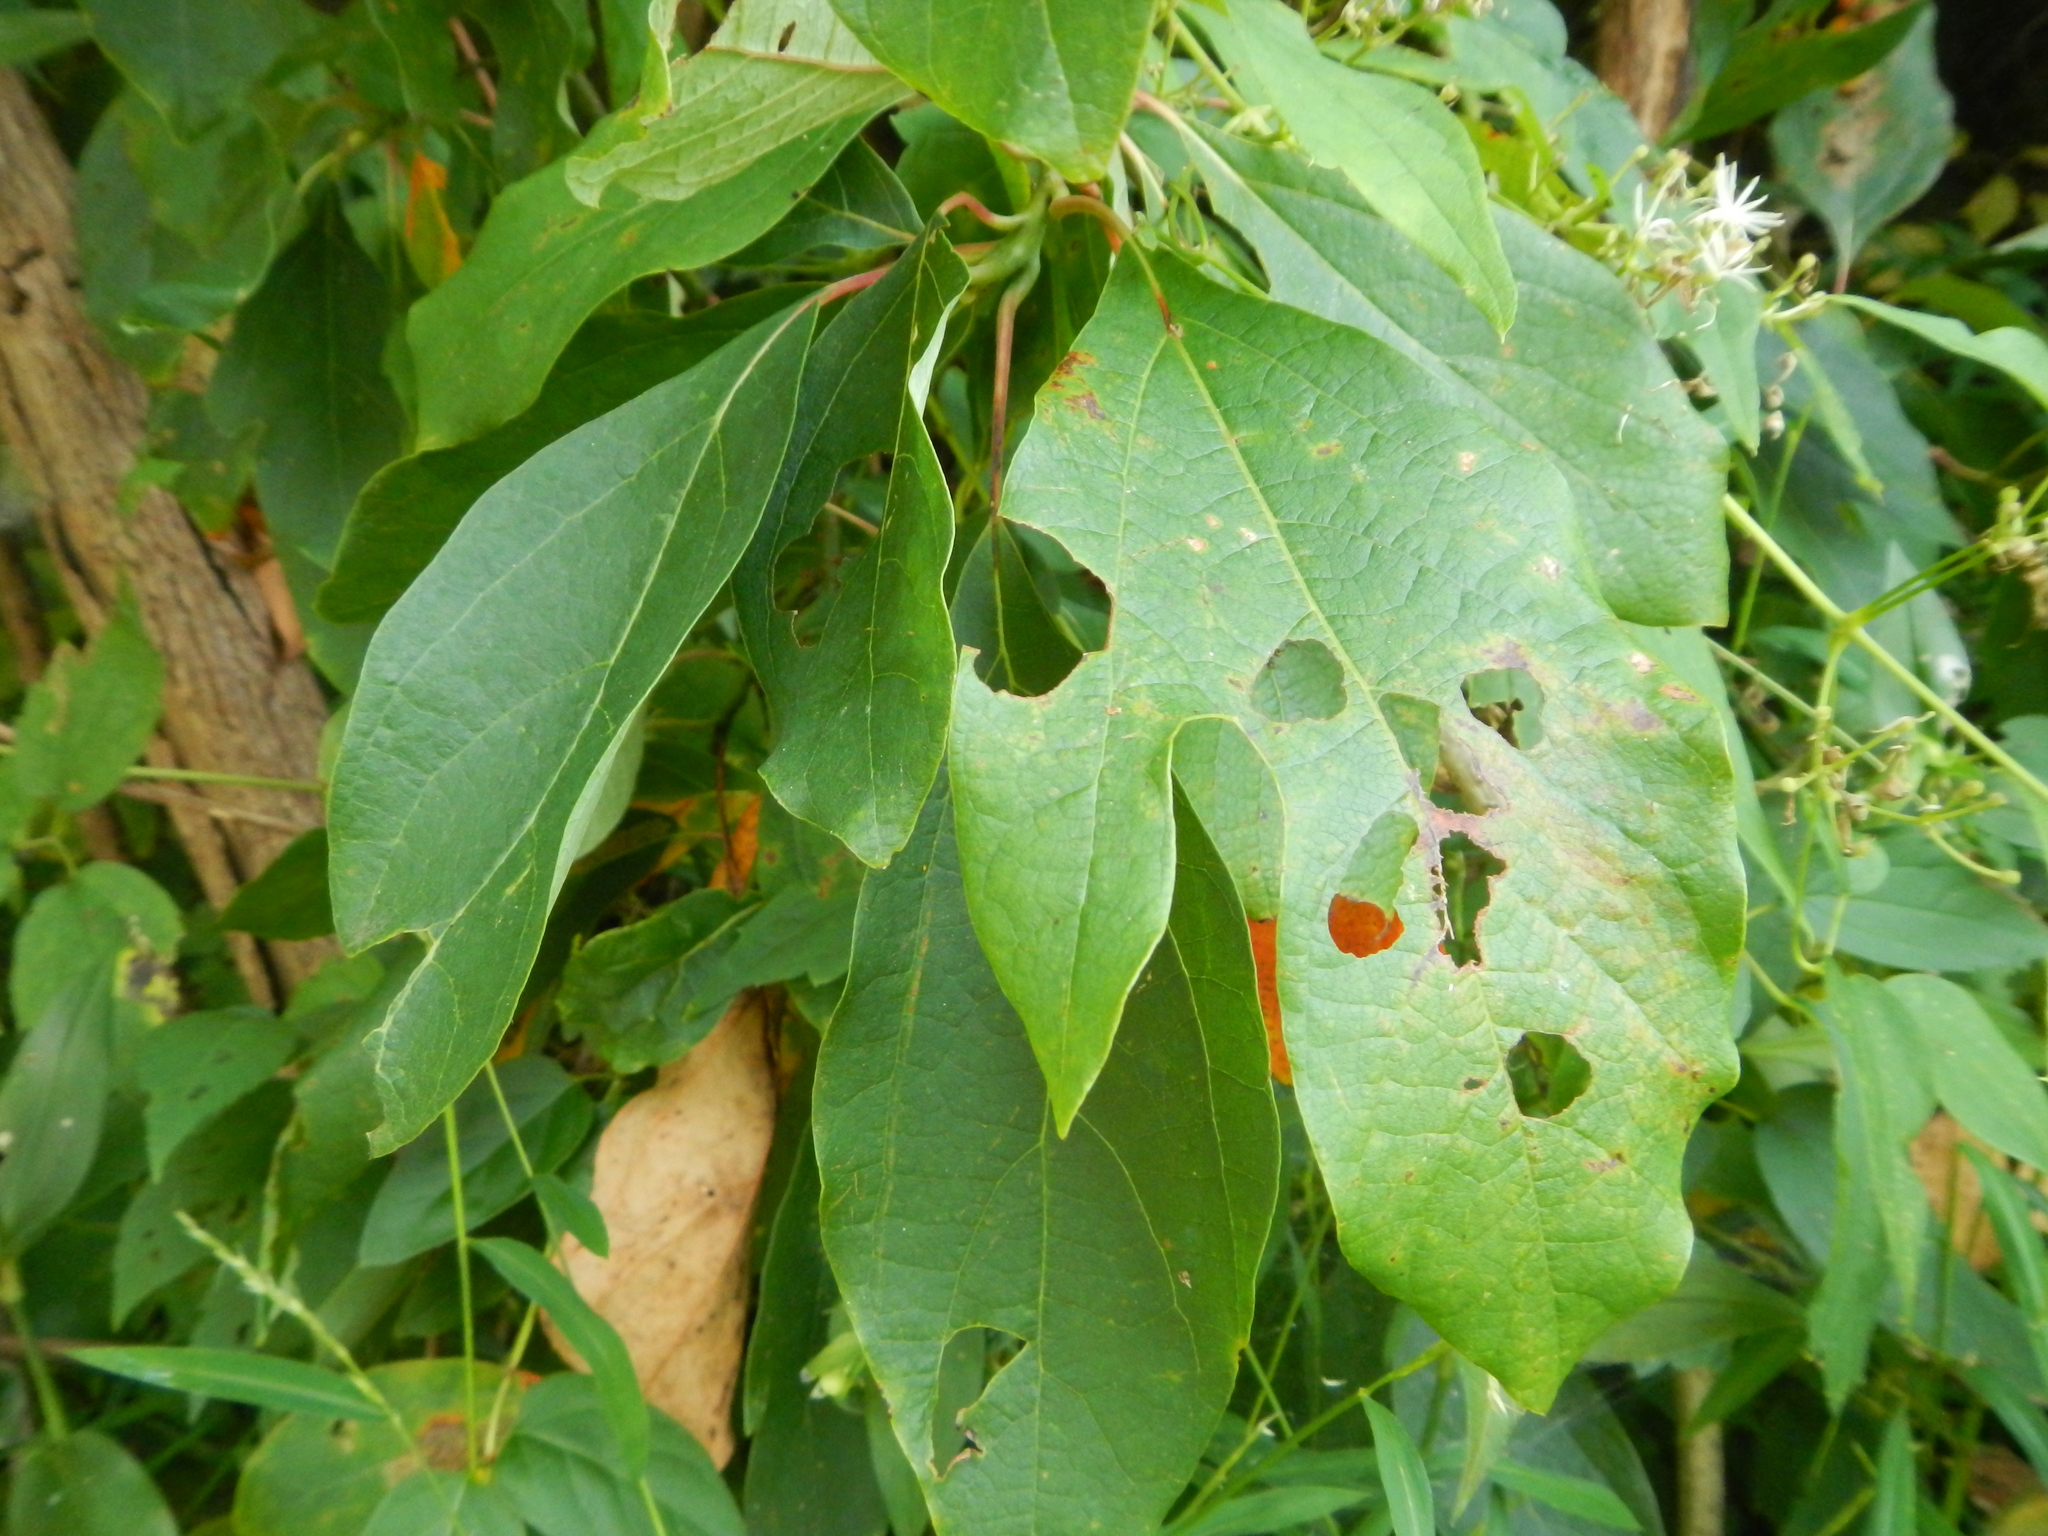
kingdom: Plantae
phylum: Tracheophyta
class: Magnoliopsida
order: Laurales
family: Lauraceae
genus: Sassafras
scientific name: Sassafras albidum
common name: Sassafras
